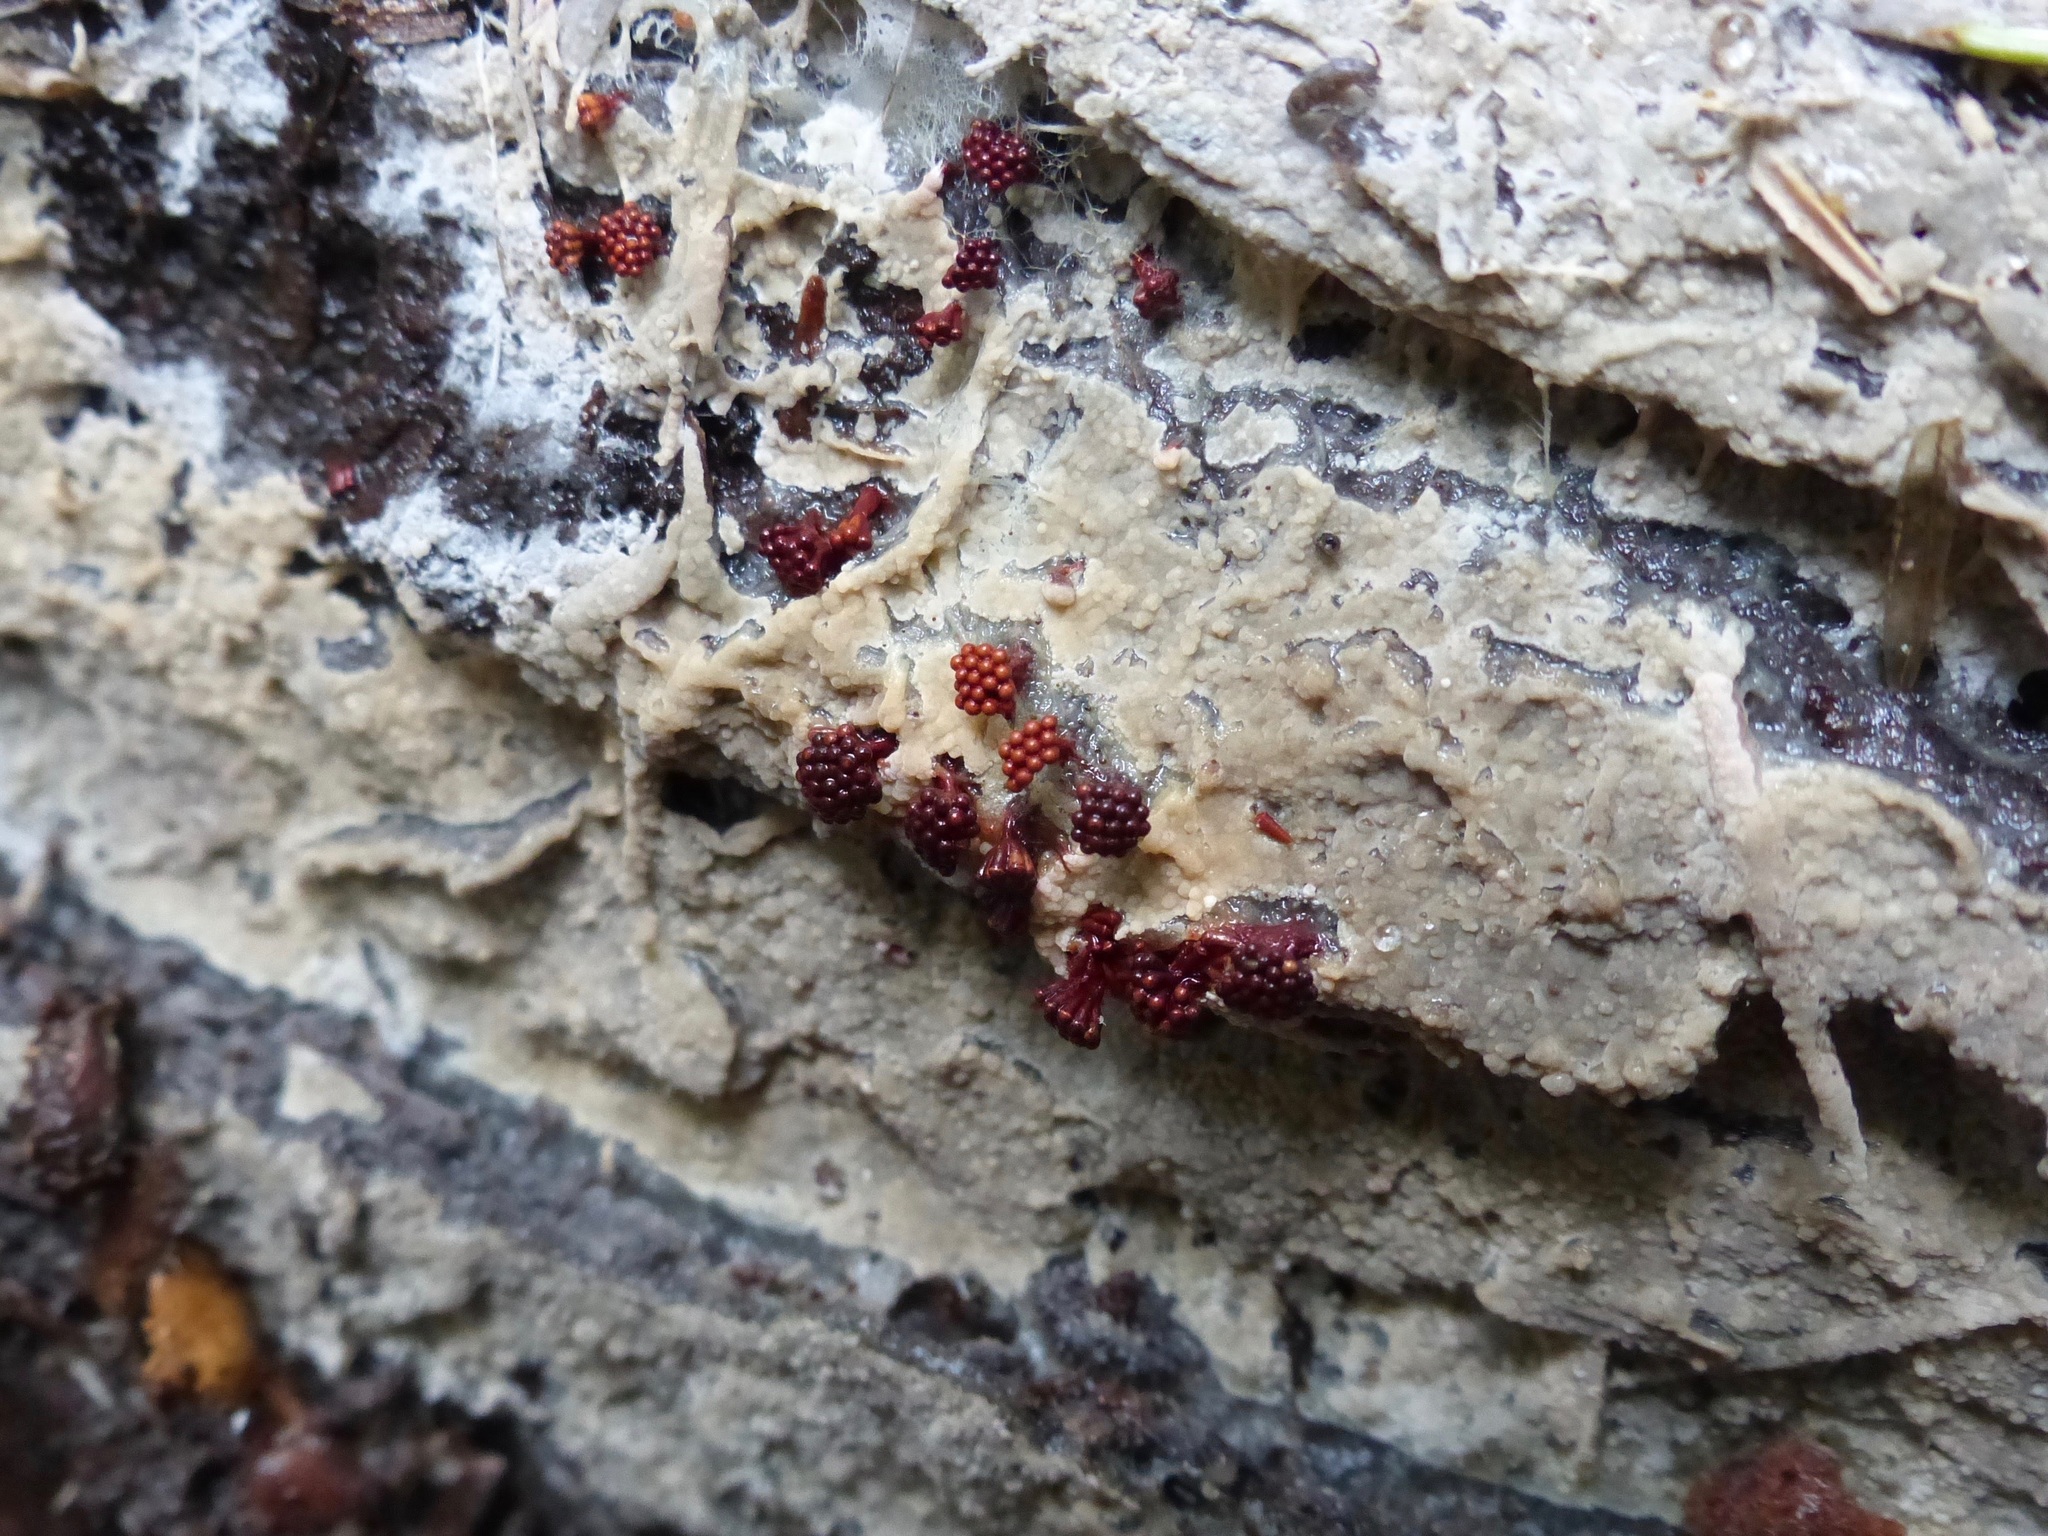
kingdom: Protozoa
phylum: Mycetozoa
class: Myxomycetes
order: Trichiales
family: Trichiaceae
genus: Metatrichia
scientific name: Metatrichia vesparia
